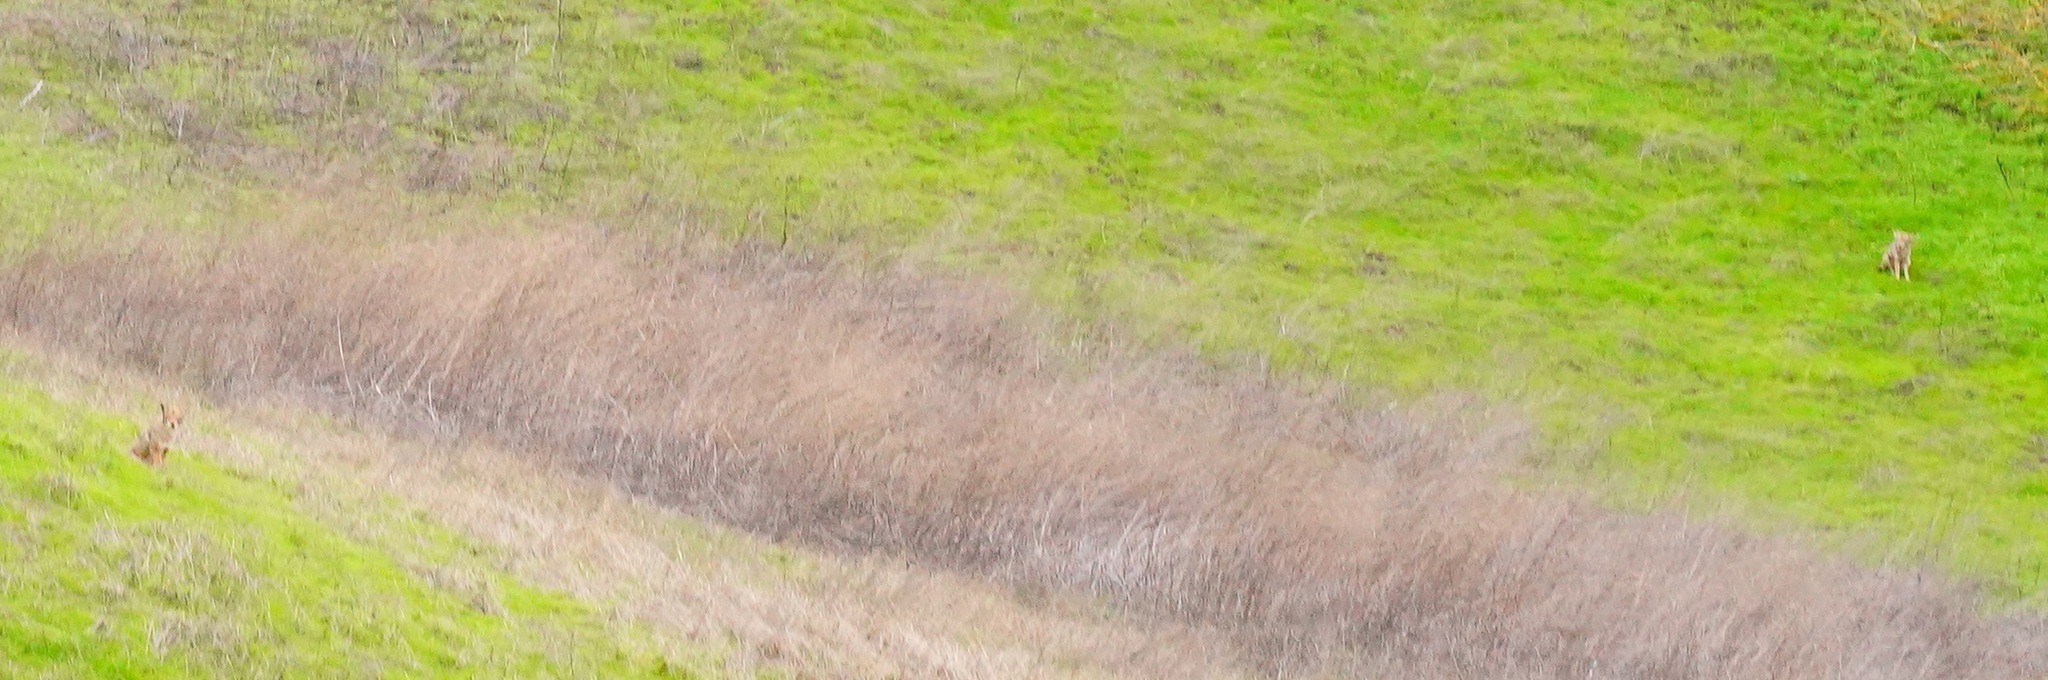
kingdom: Animalia
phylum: Chordata
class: Mammalia
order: Carnivora
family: Canidae
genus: Canis
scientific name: Canis latrans
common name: Coyote
